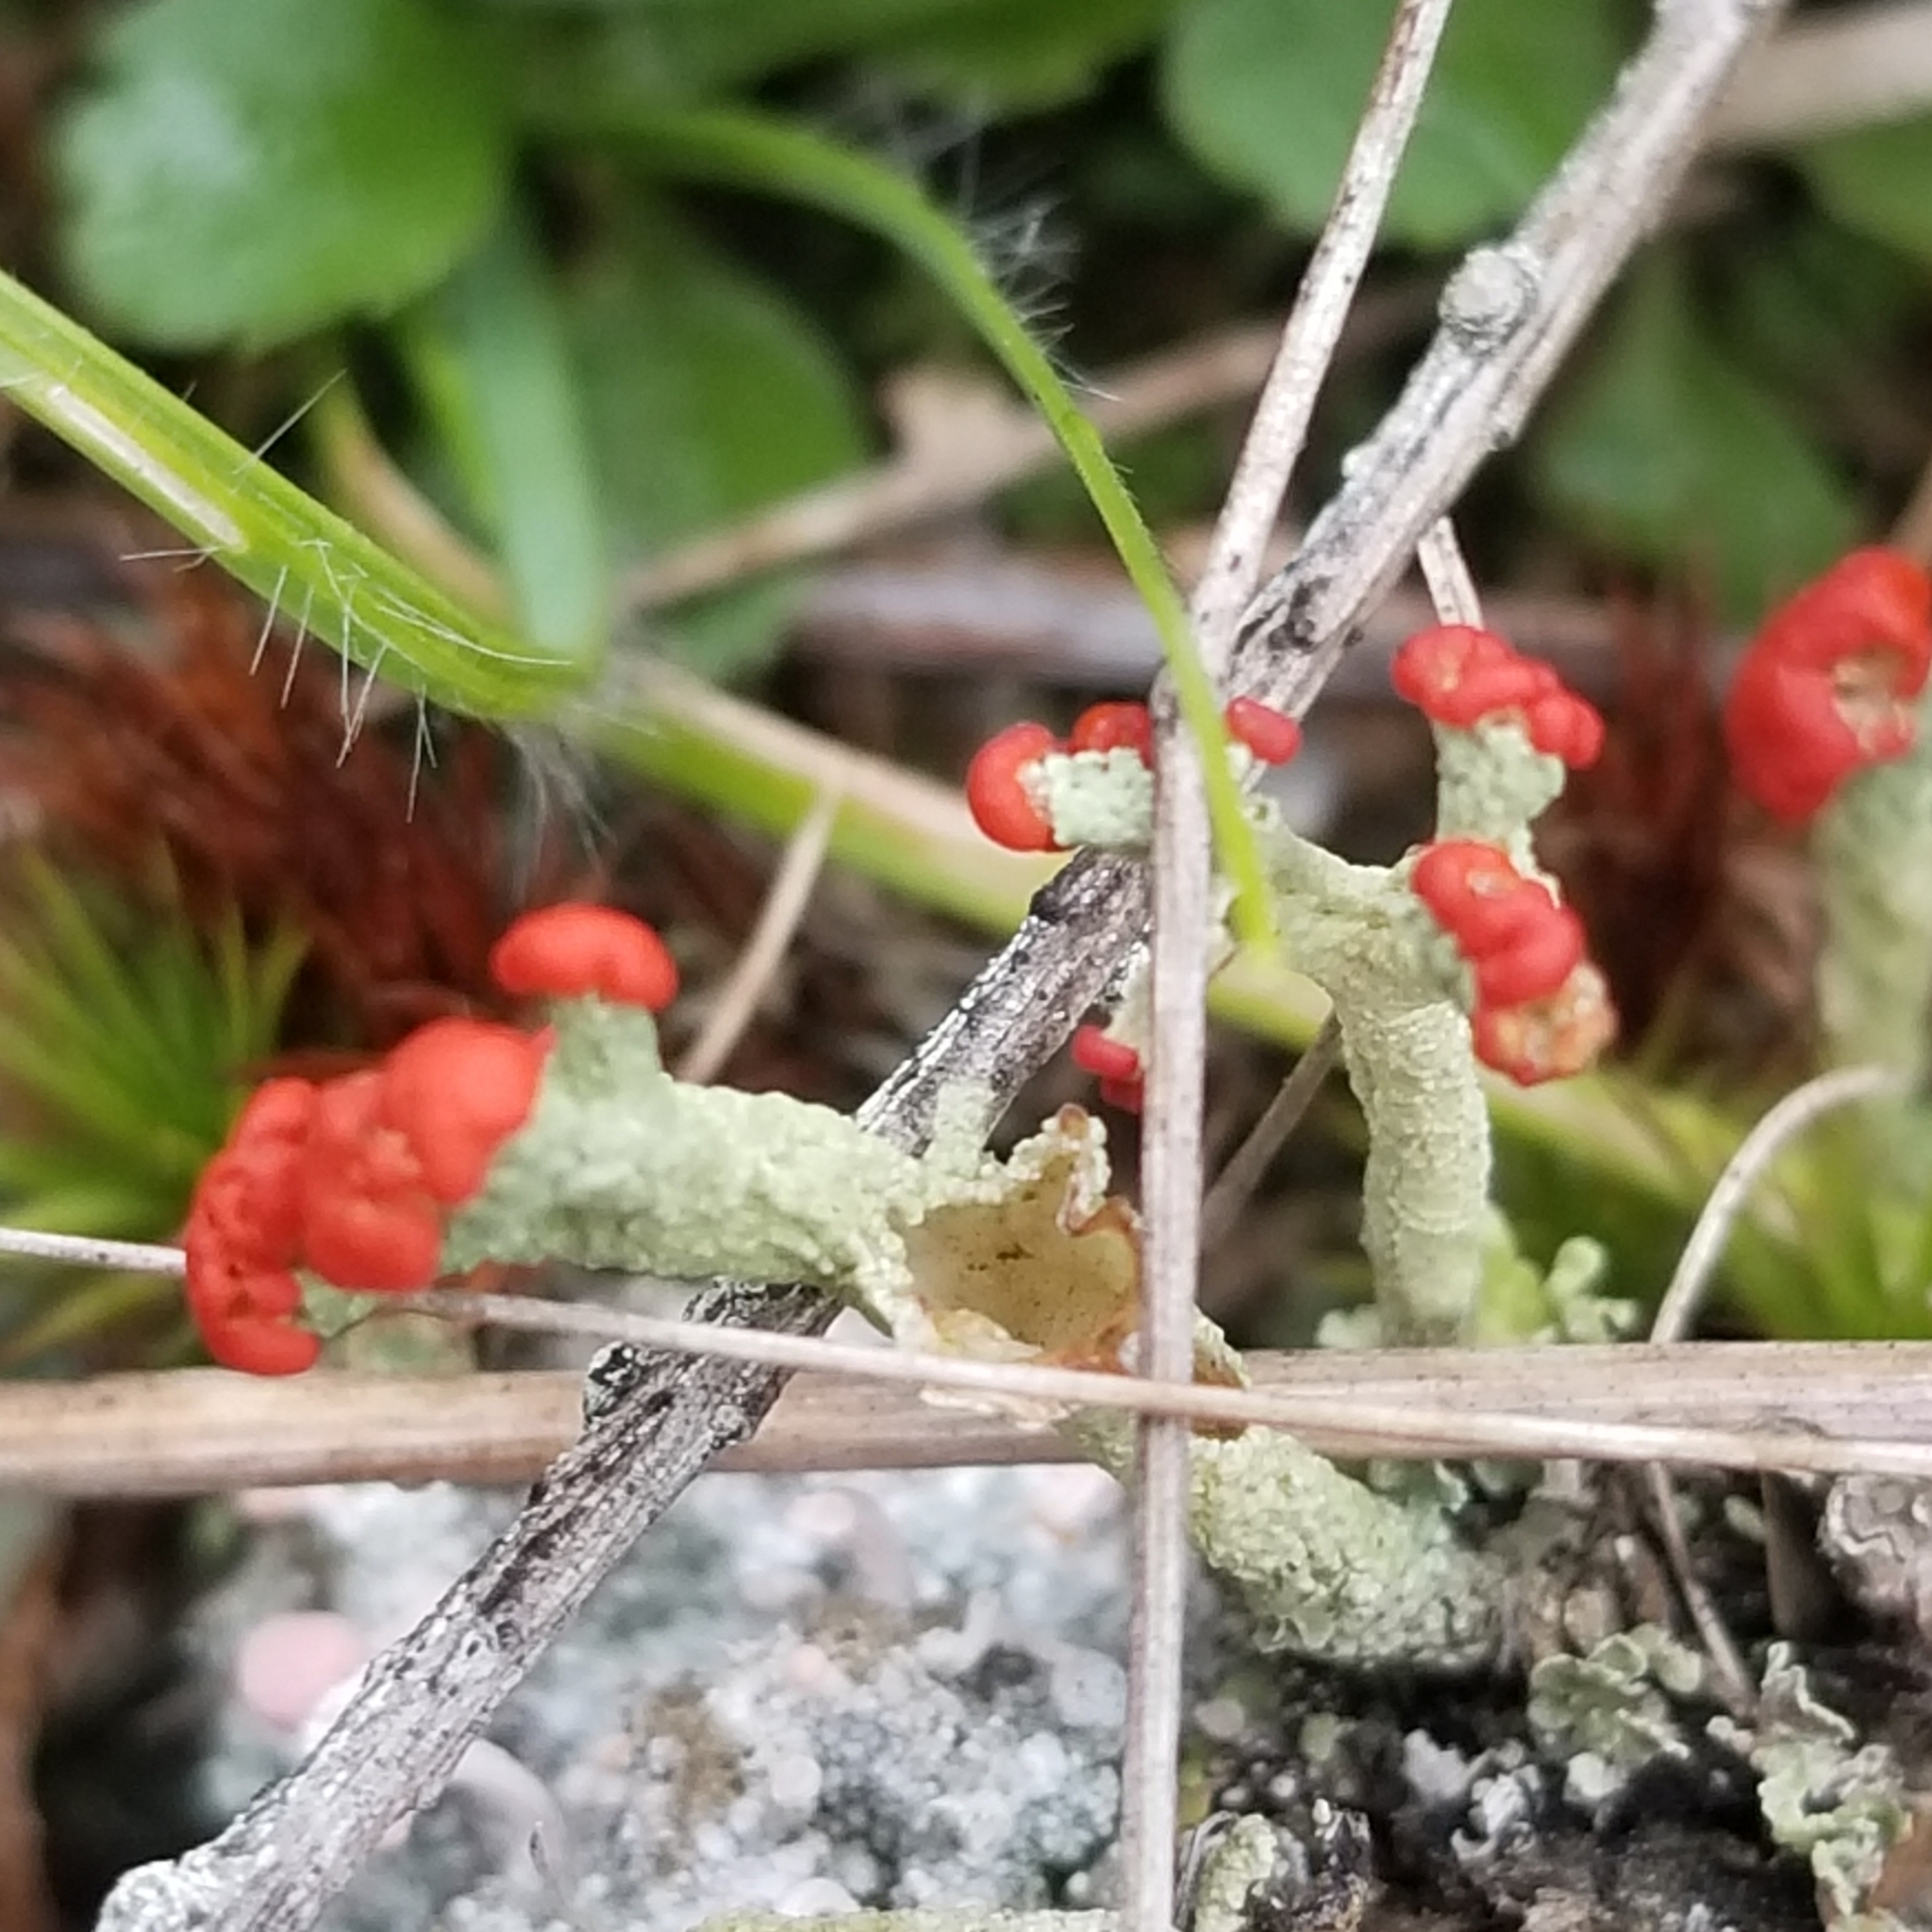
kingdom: Fungi
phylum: Ascomycota
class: Lecanoromycetes
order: Lecanorales
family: Cladoniaceae
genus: Cladonia
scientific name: Cladonia cristatella
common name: British soldier lichen
